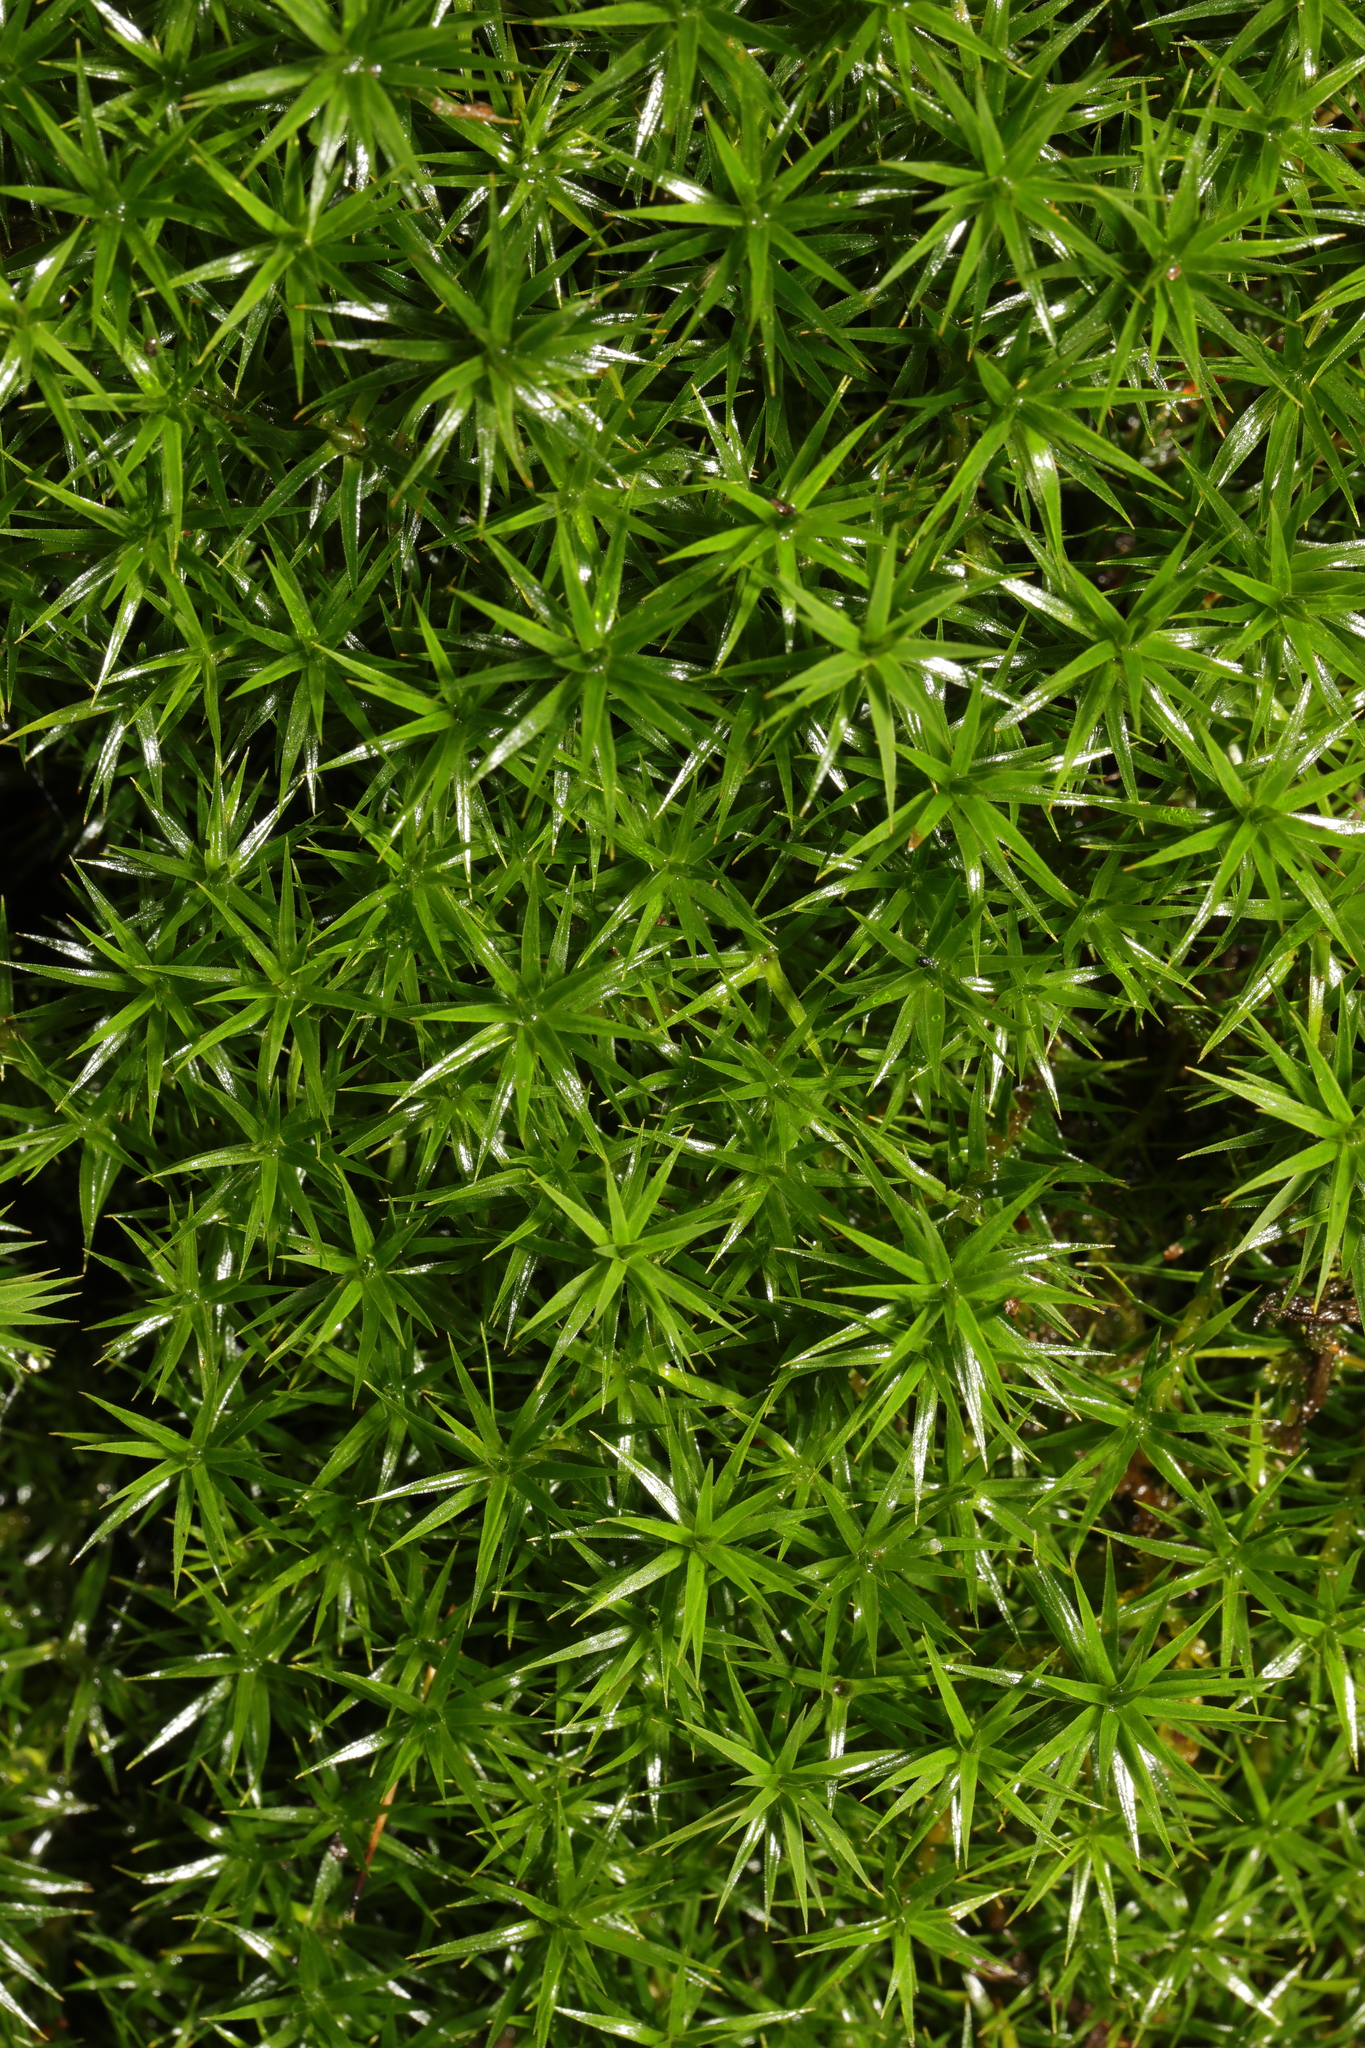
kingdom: Plantae
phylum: Bryophyta
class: Polytrichopsida
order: Polytrichales
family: Polytrichaceae
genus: Polytrichum
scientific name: Polytrichum formosum
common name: Bank haircap moss
